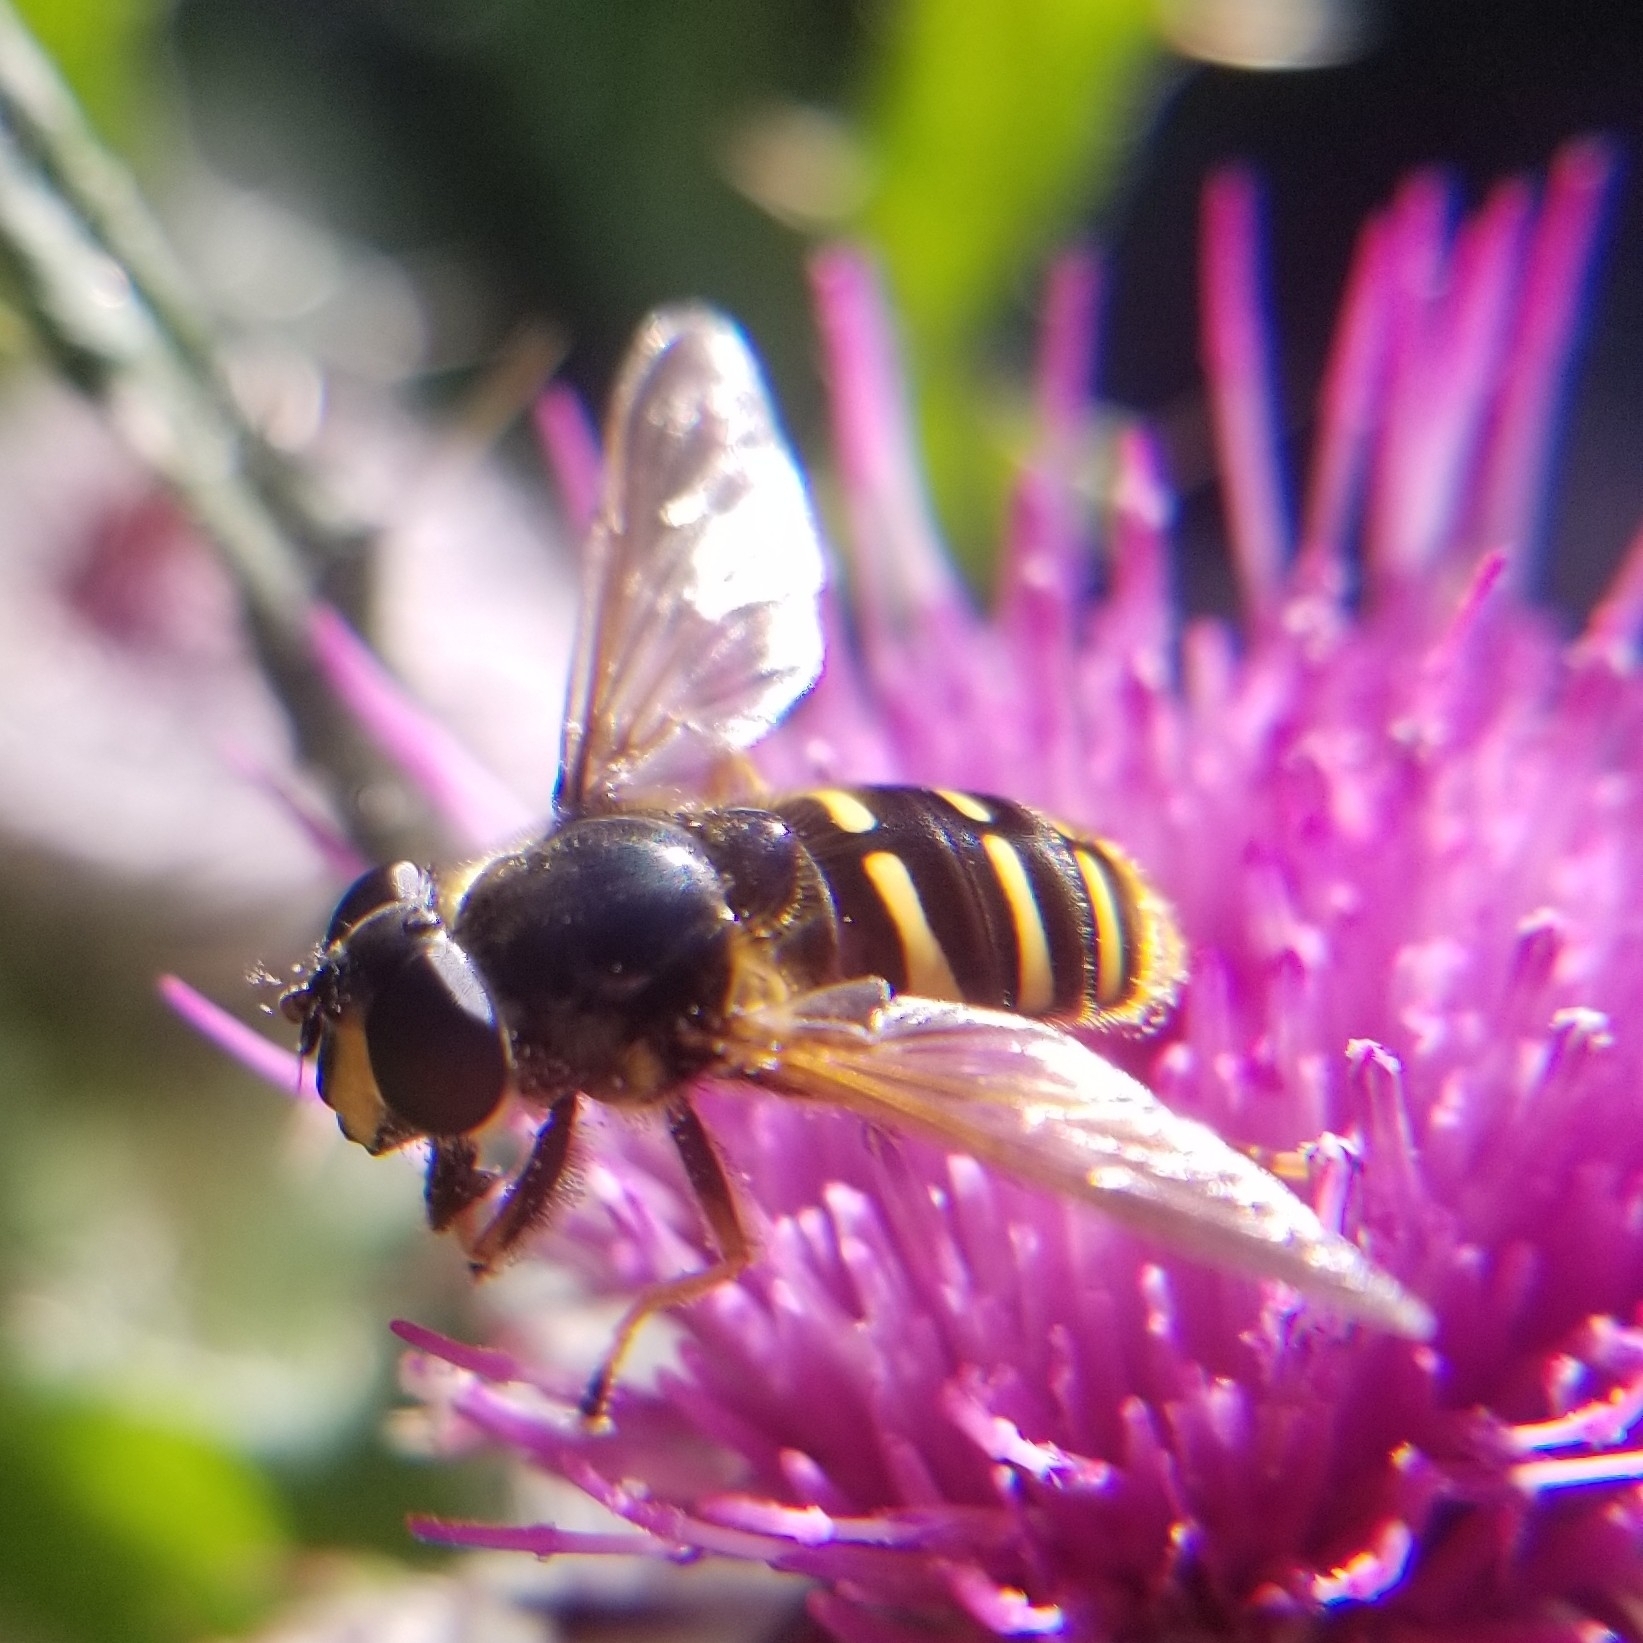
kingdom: Animalia
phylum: Arthropoda
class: Insecta
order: Diptera
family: Syrphidae
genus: Sericomyia
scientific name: Sericomyia chalcopyga
